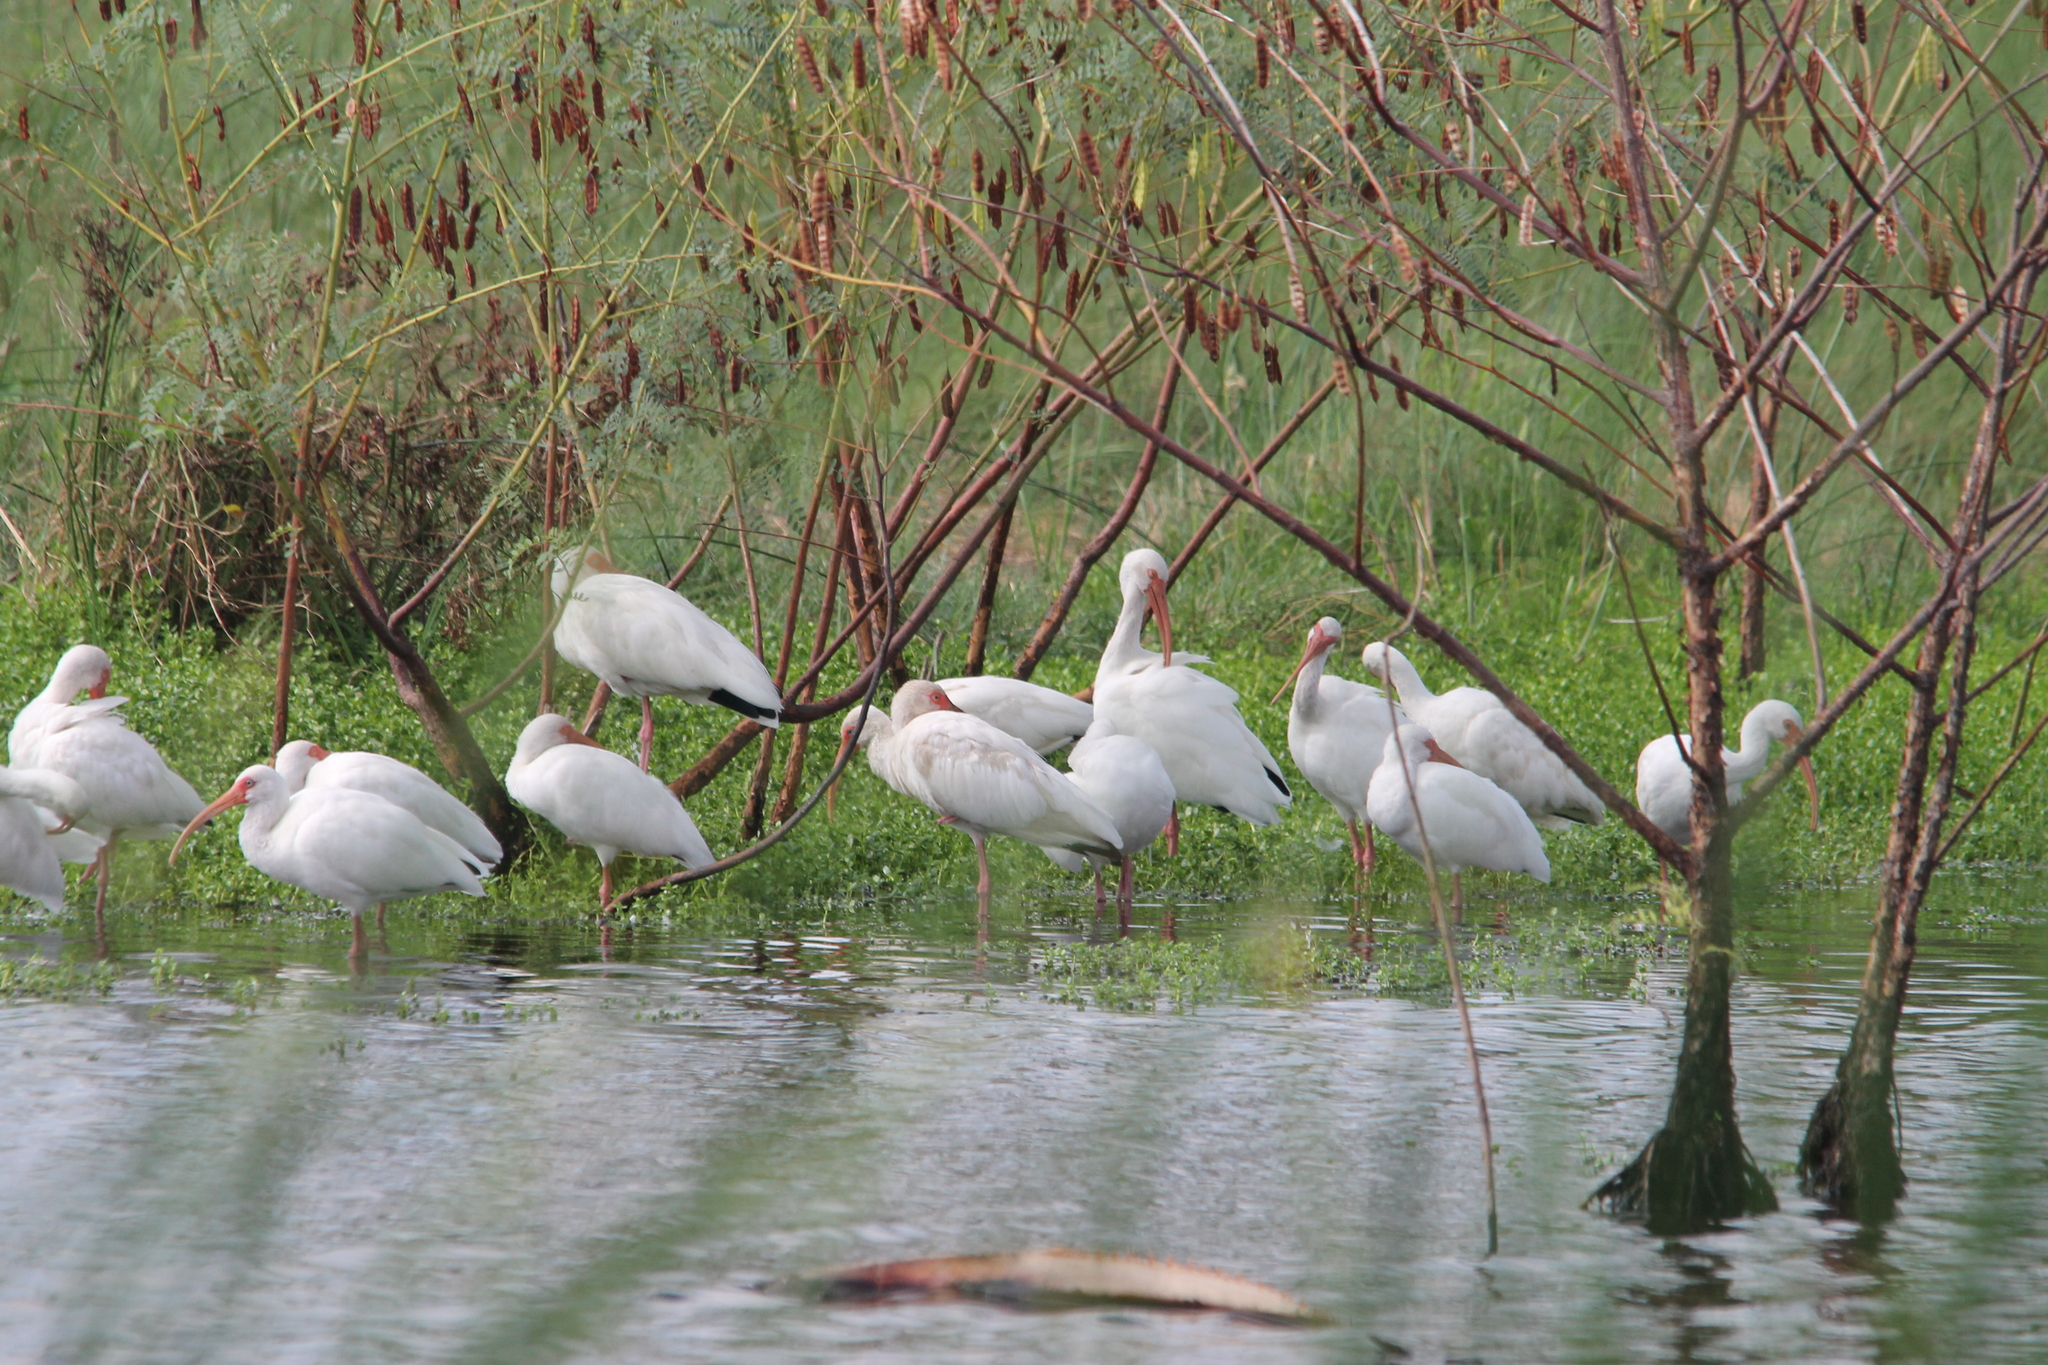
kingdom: Animalia
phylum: Chordata
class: Aves
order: Pelecaniformes
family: Threskiornithidae
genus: Eudocimus
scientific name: Eudocimus albus
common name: White ibis
